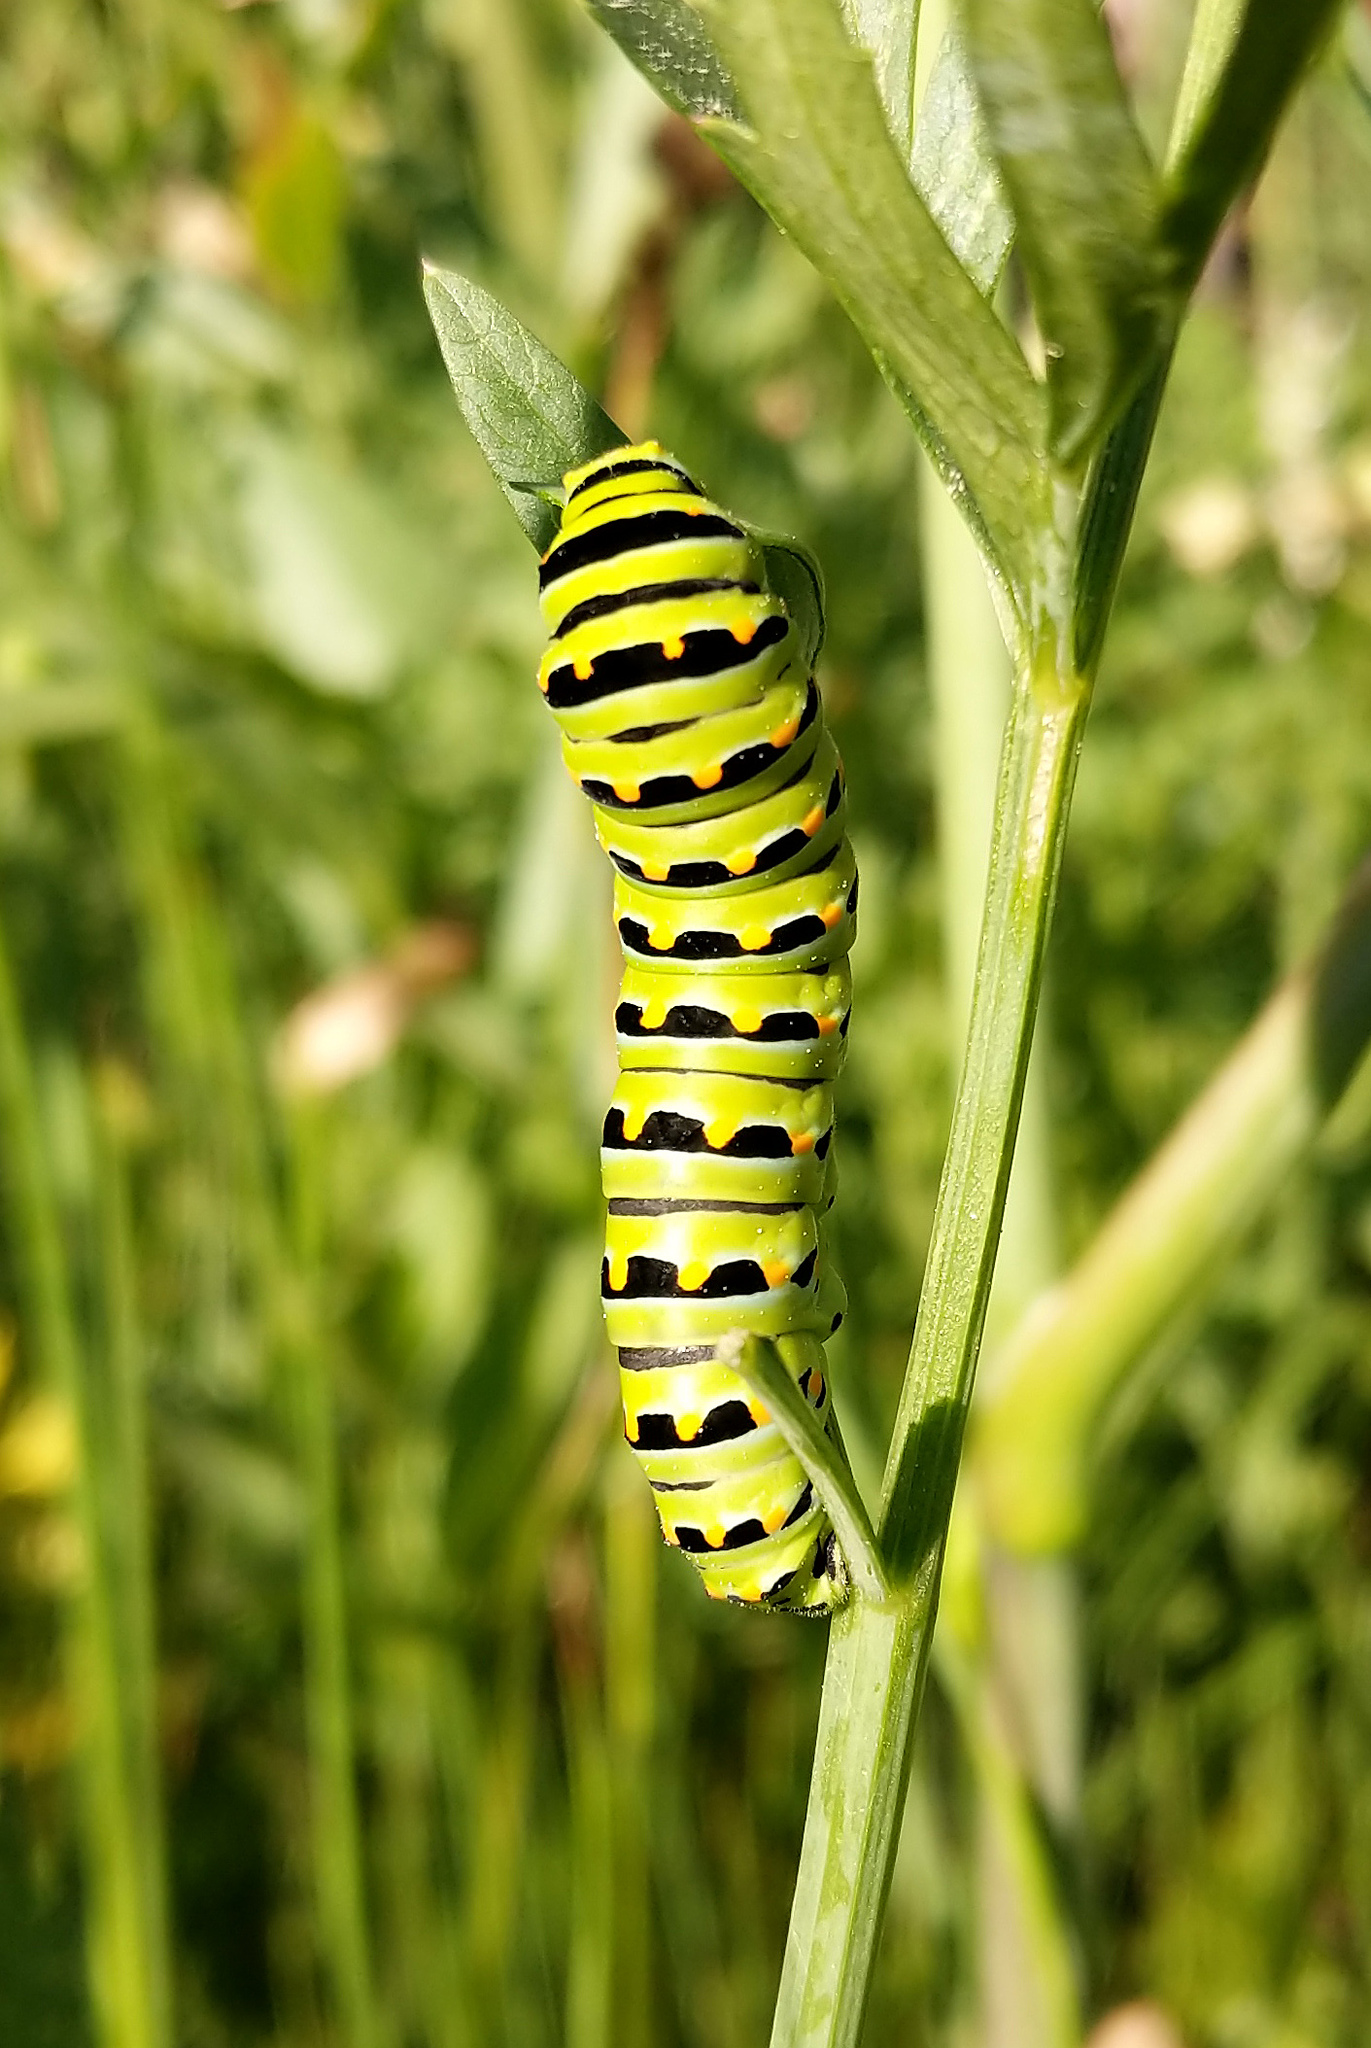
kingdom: Animalia
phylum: Arthropoda
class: Insecta
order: Lepidoptera
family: Papilionidae
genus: Papilio
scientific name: Papilio zelicaon
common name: Anise swallowtail
